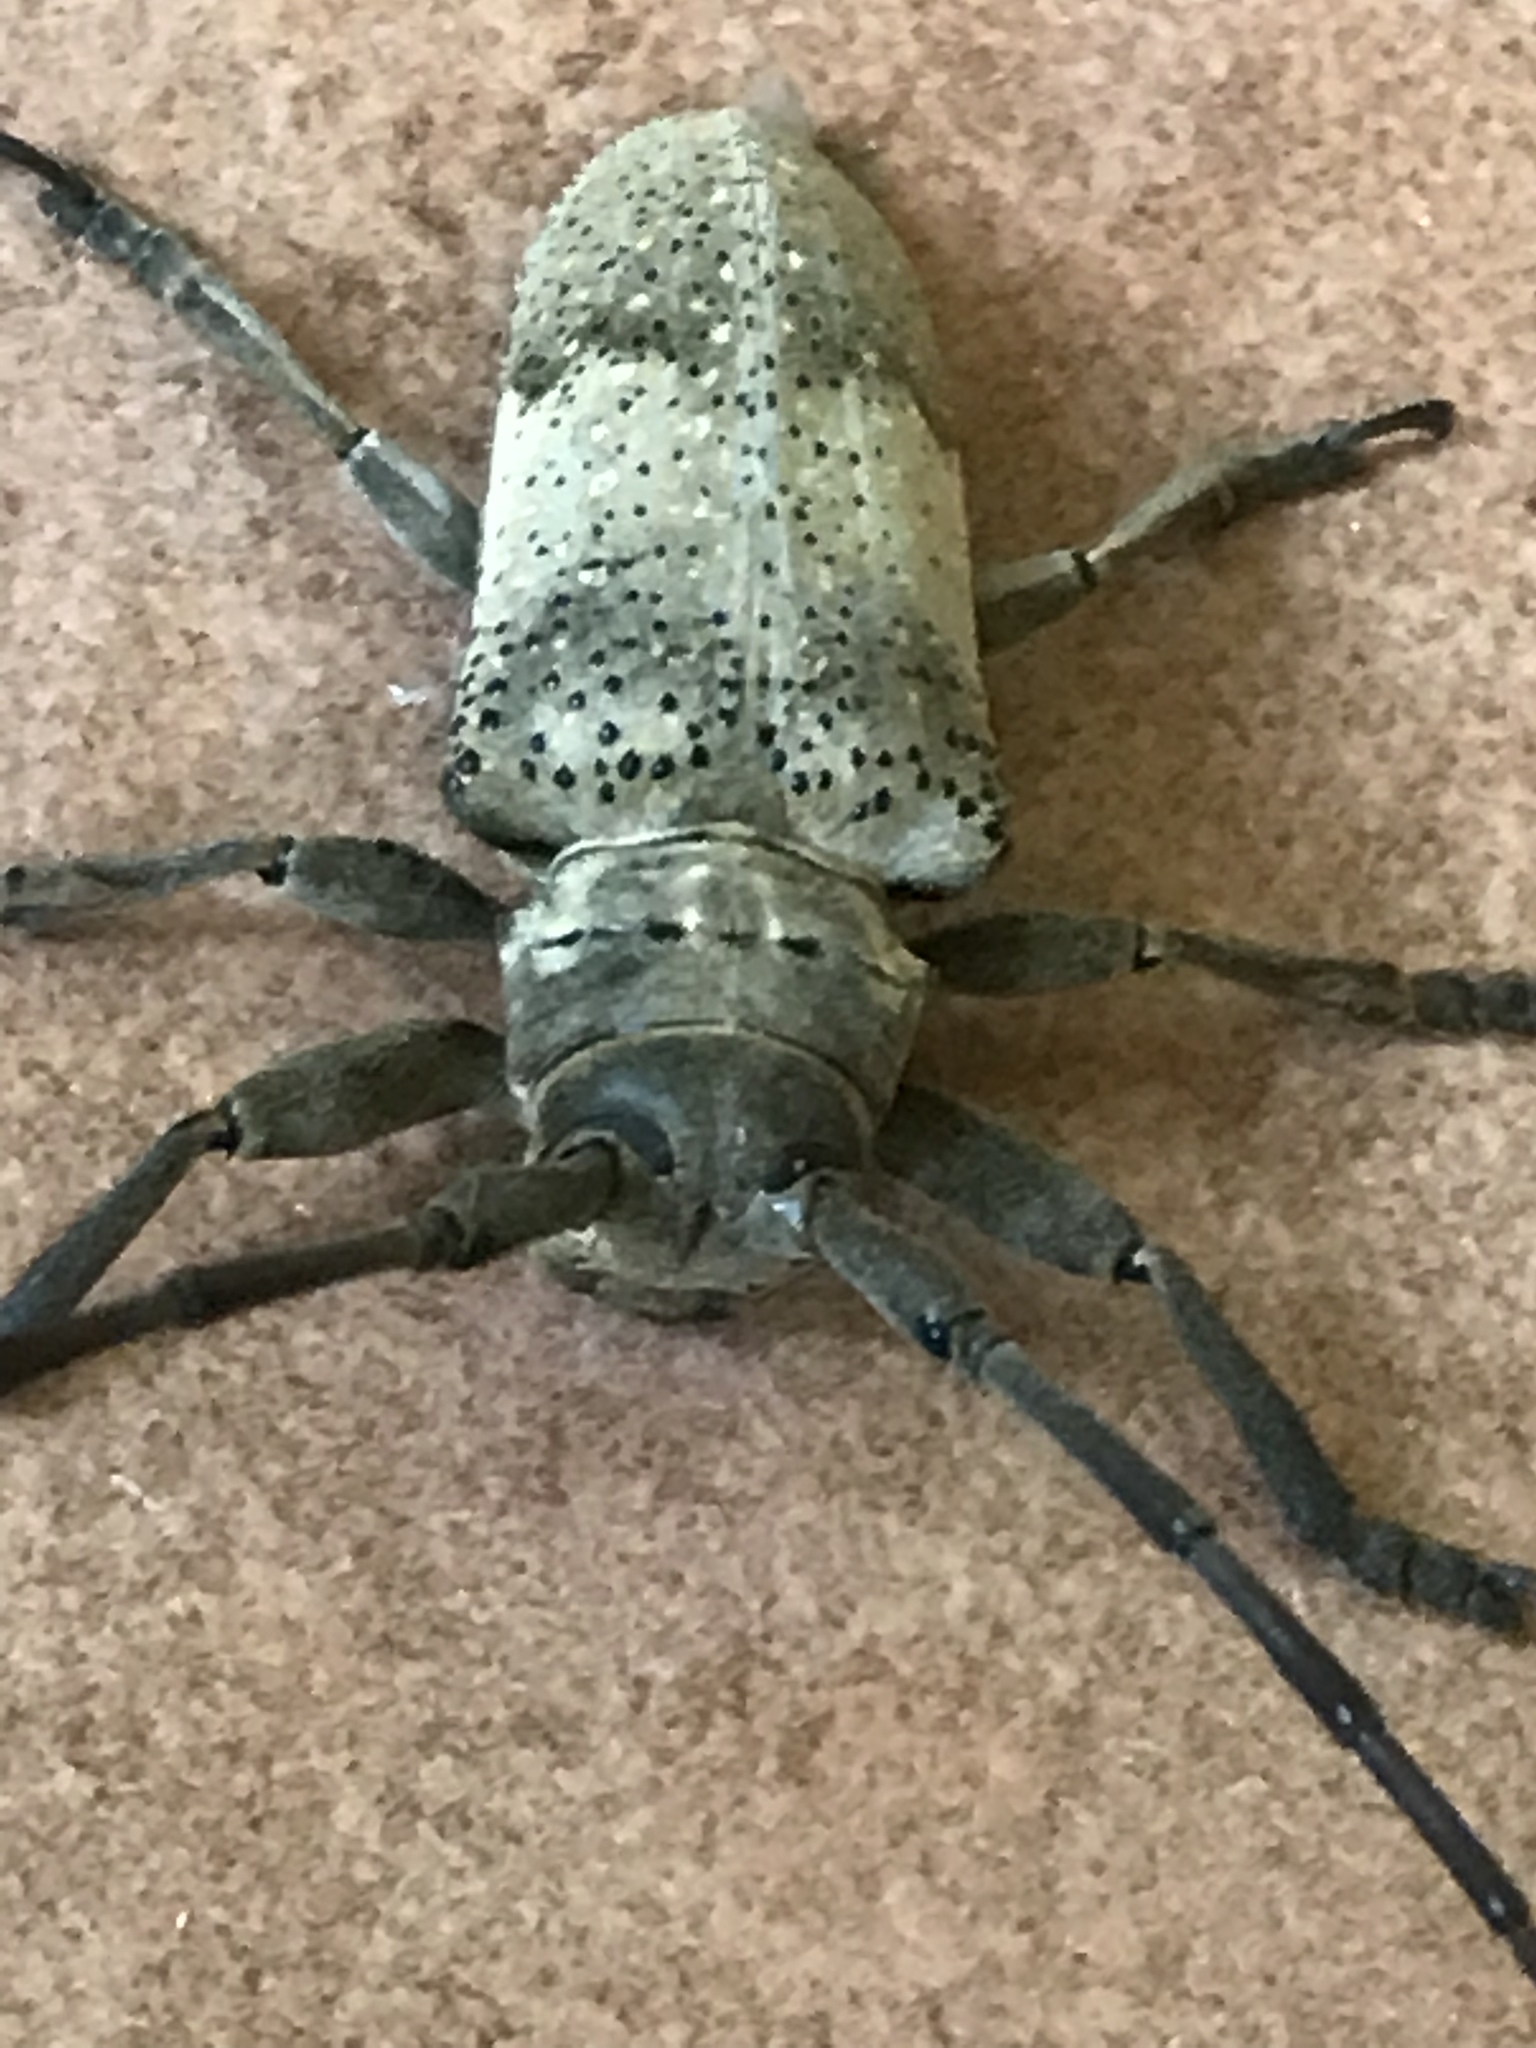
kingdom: Animalia
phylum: Arthropoda
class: Insecta
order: Coleoptera
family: Cerambycidae
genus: Oncideres
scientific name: Oncideres pustulata
